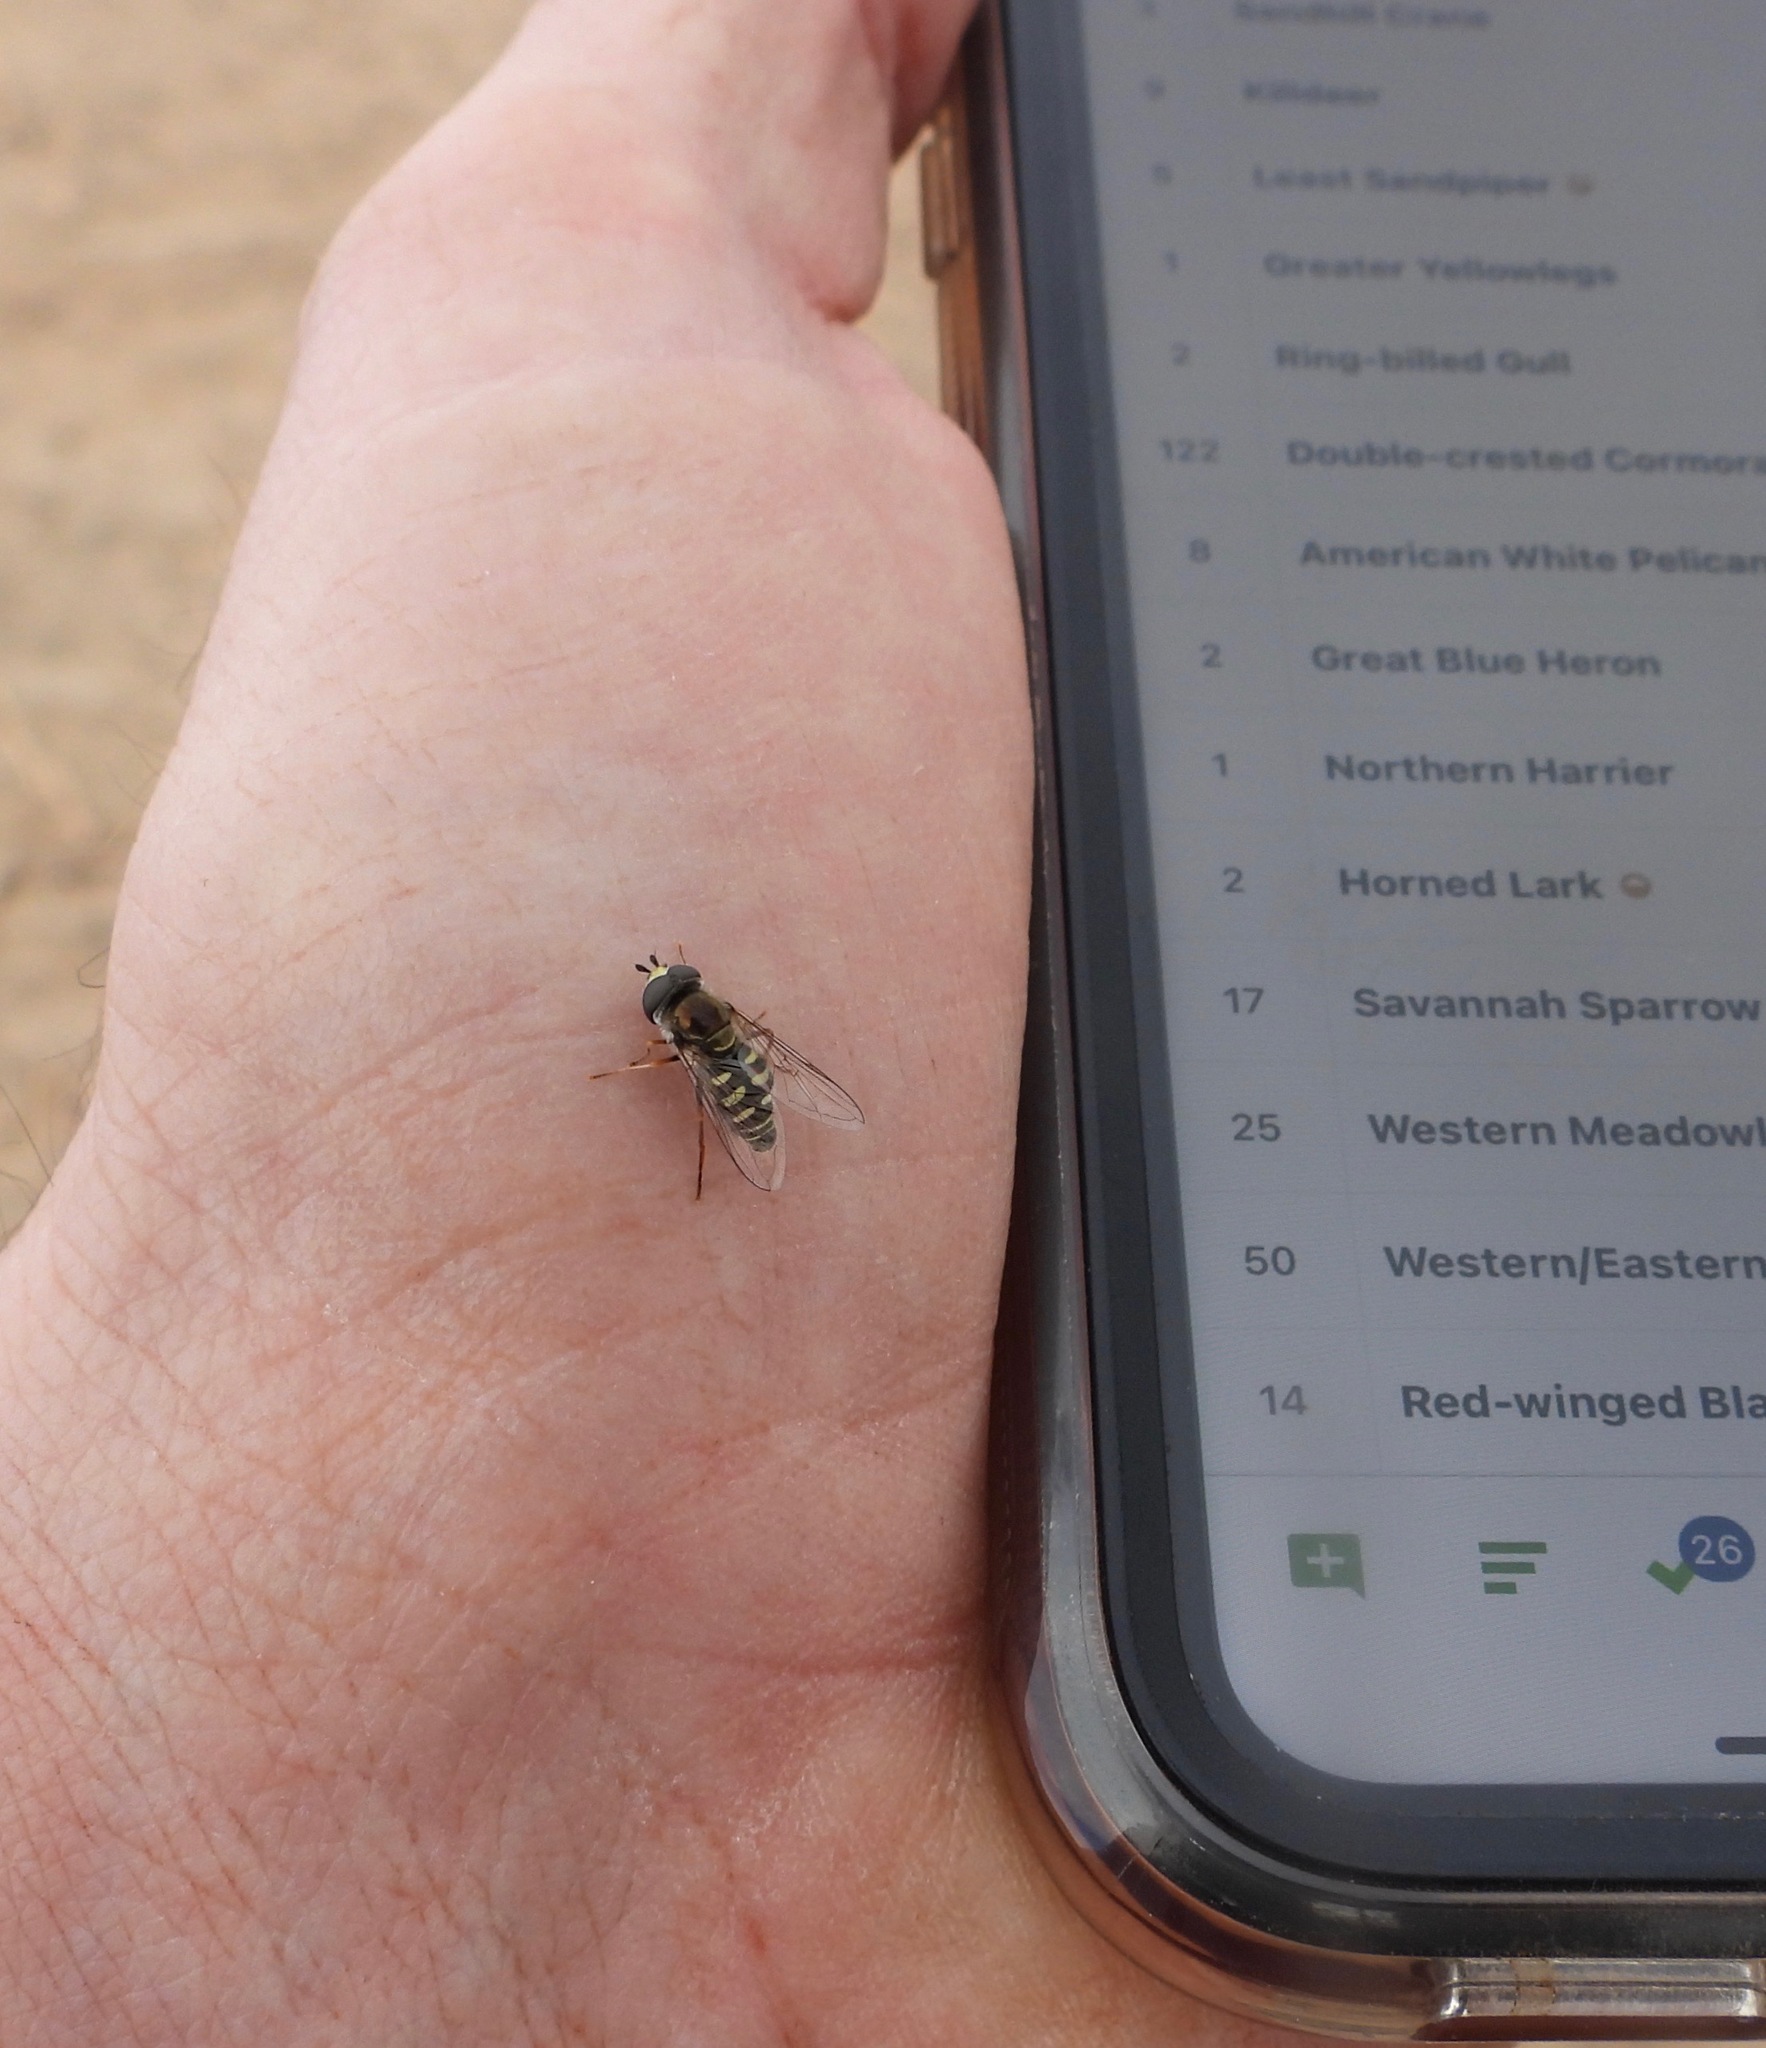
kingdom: Animalia
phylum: Arthropoda
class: Insecta
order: Diptera
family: Syrphidae
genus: Eupeodes
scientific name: Eupeodes volucris
